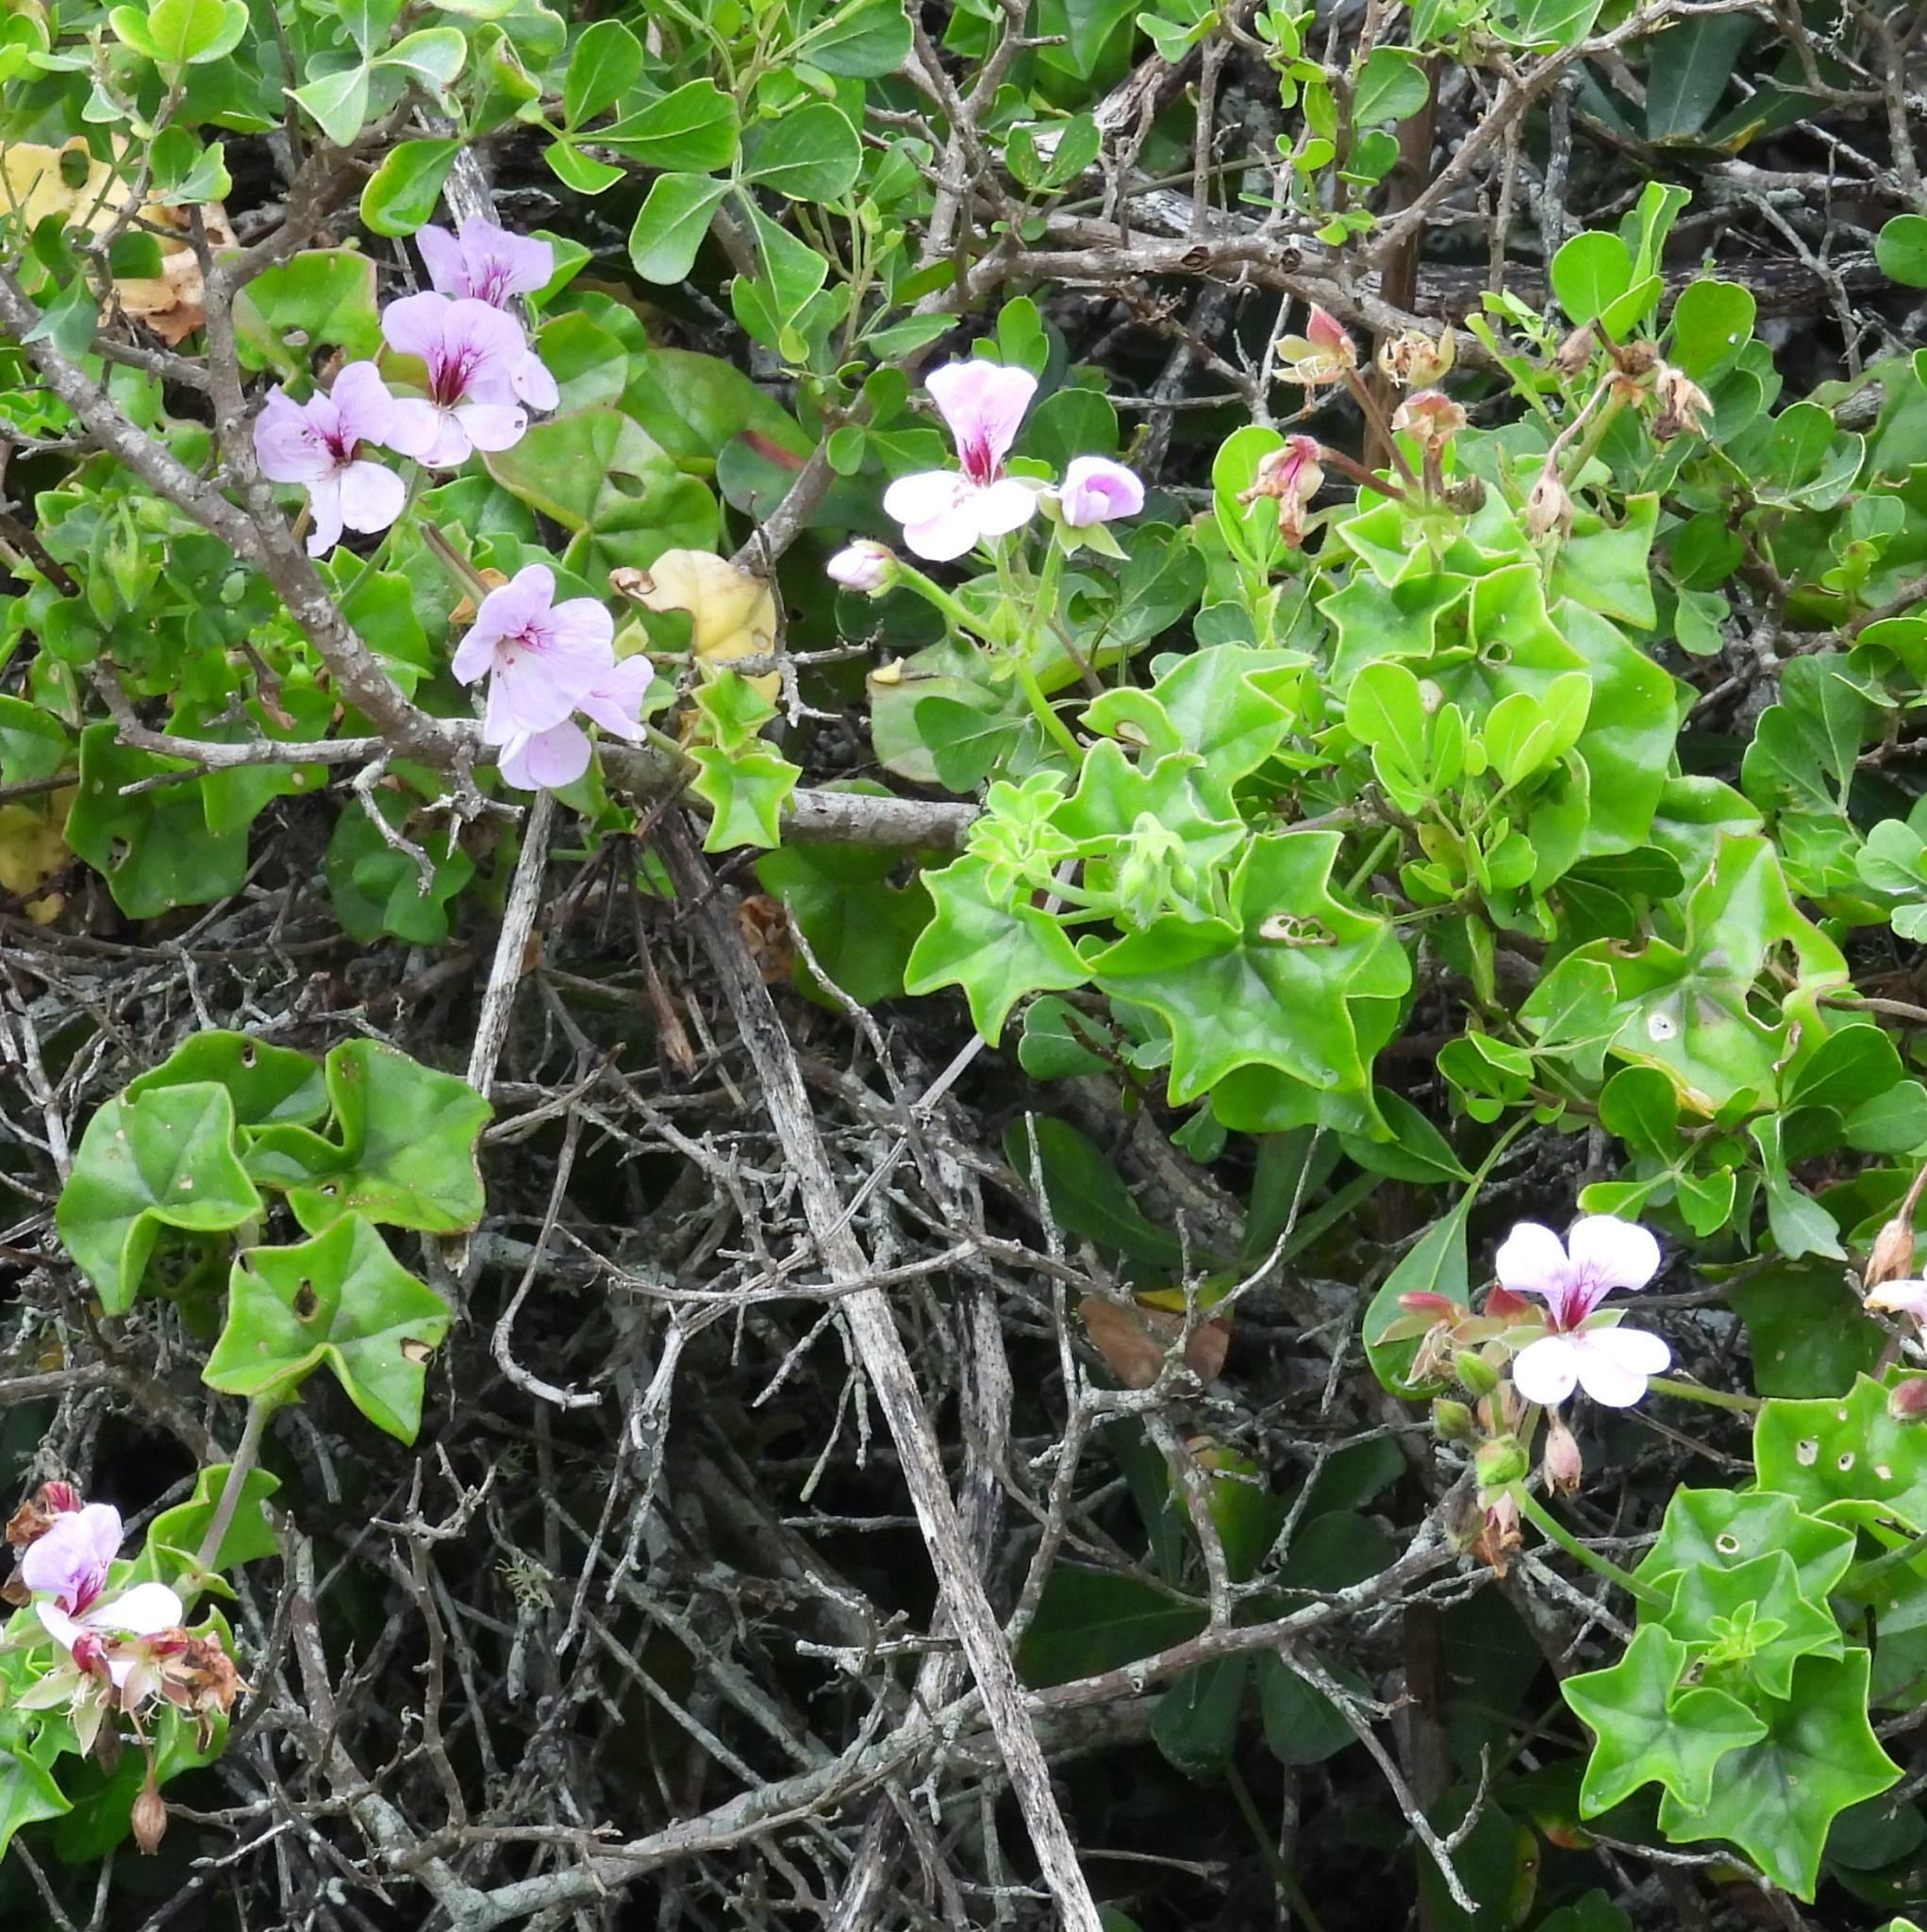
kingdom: Plantae
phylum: Tracheophyta
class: Magnoliopsida
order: Geraniales
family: Geraniaceae
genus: Pelargonium
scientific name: Pelargonium peltatum
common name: Ivyleaf geranium
